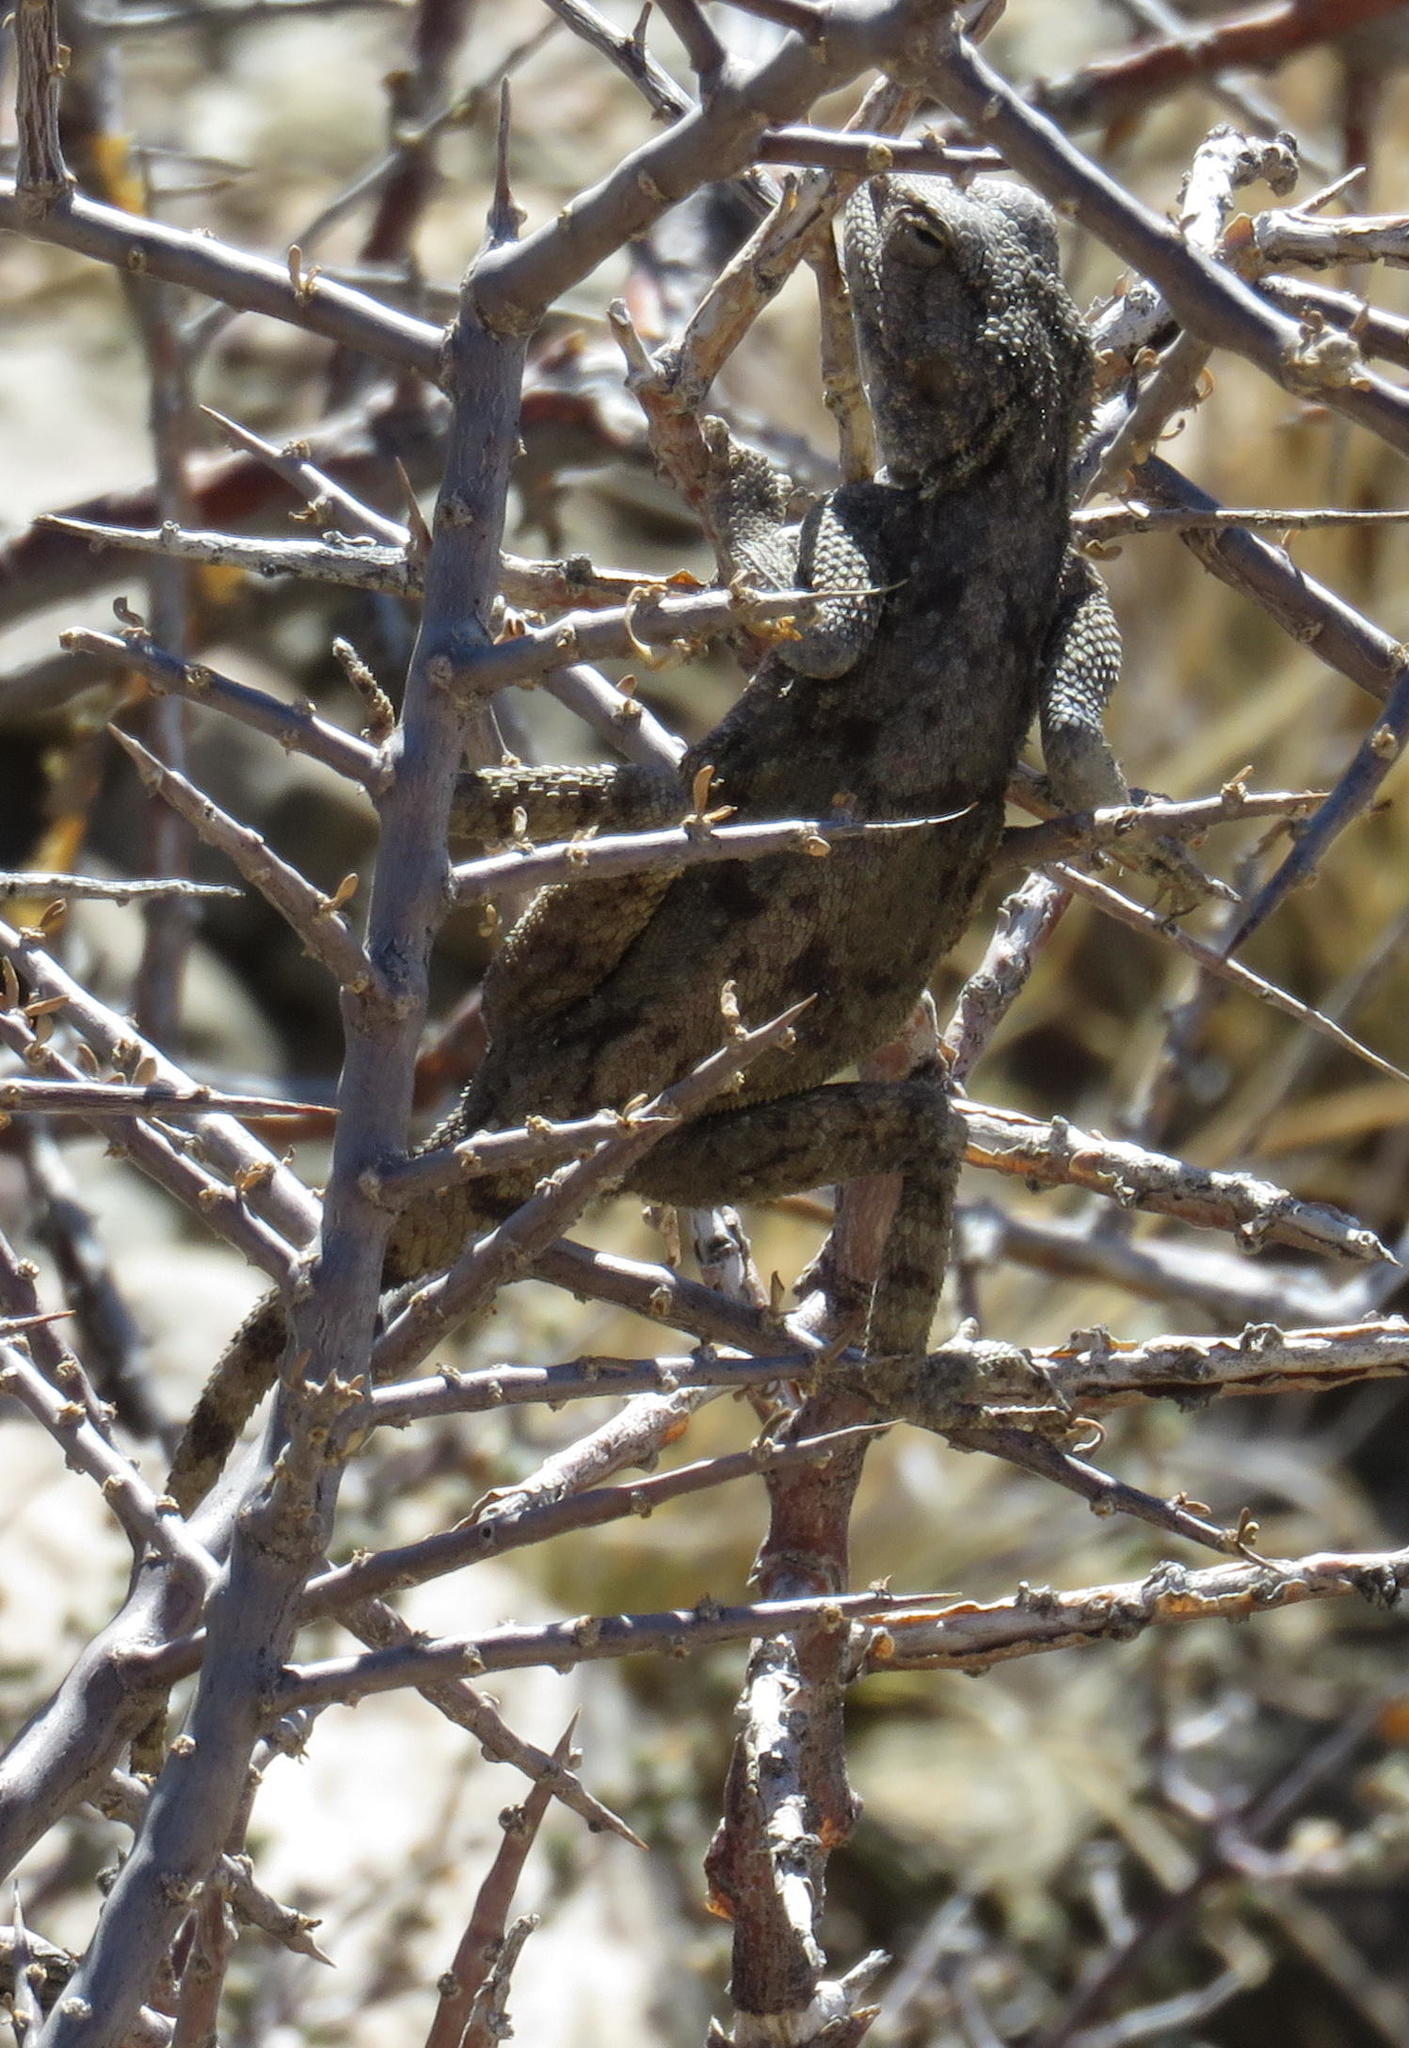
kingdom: Animalia
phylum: Chordata
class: Squamata
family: Agamidae
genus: Agama
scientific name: Agama atra
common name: Southern african rock agama
